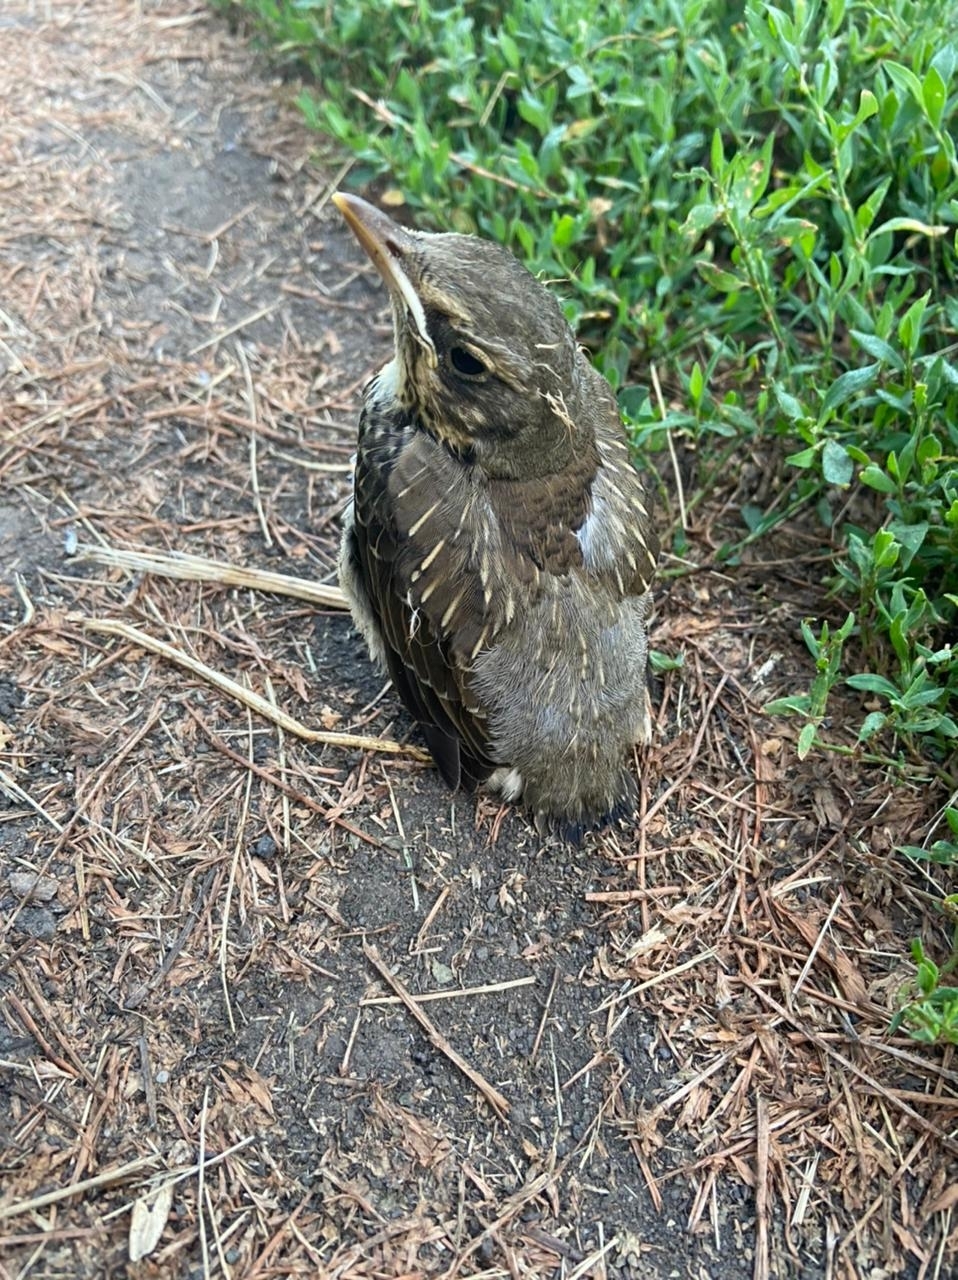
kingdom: Animalia
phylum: Chordata
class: Aves
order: Passeriformes
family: Turdidae
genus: Turdus
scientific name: Turdus pilaris
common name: Fieldfare
